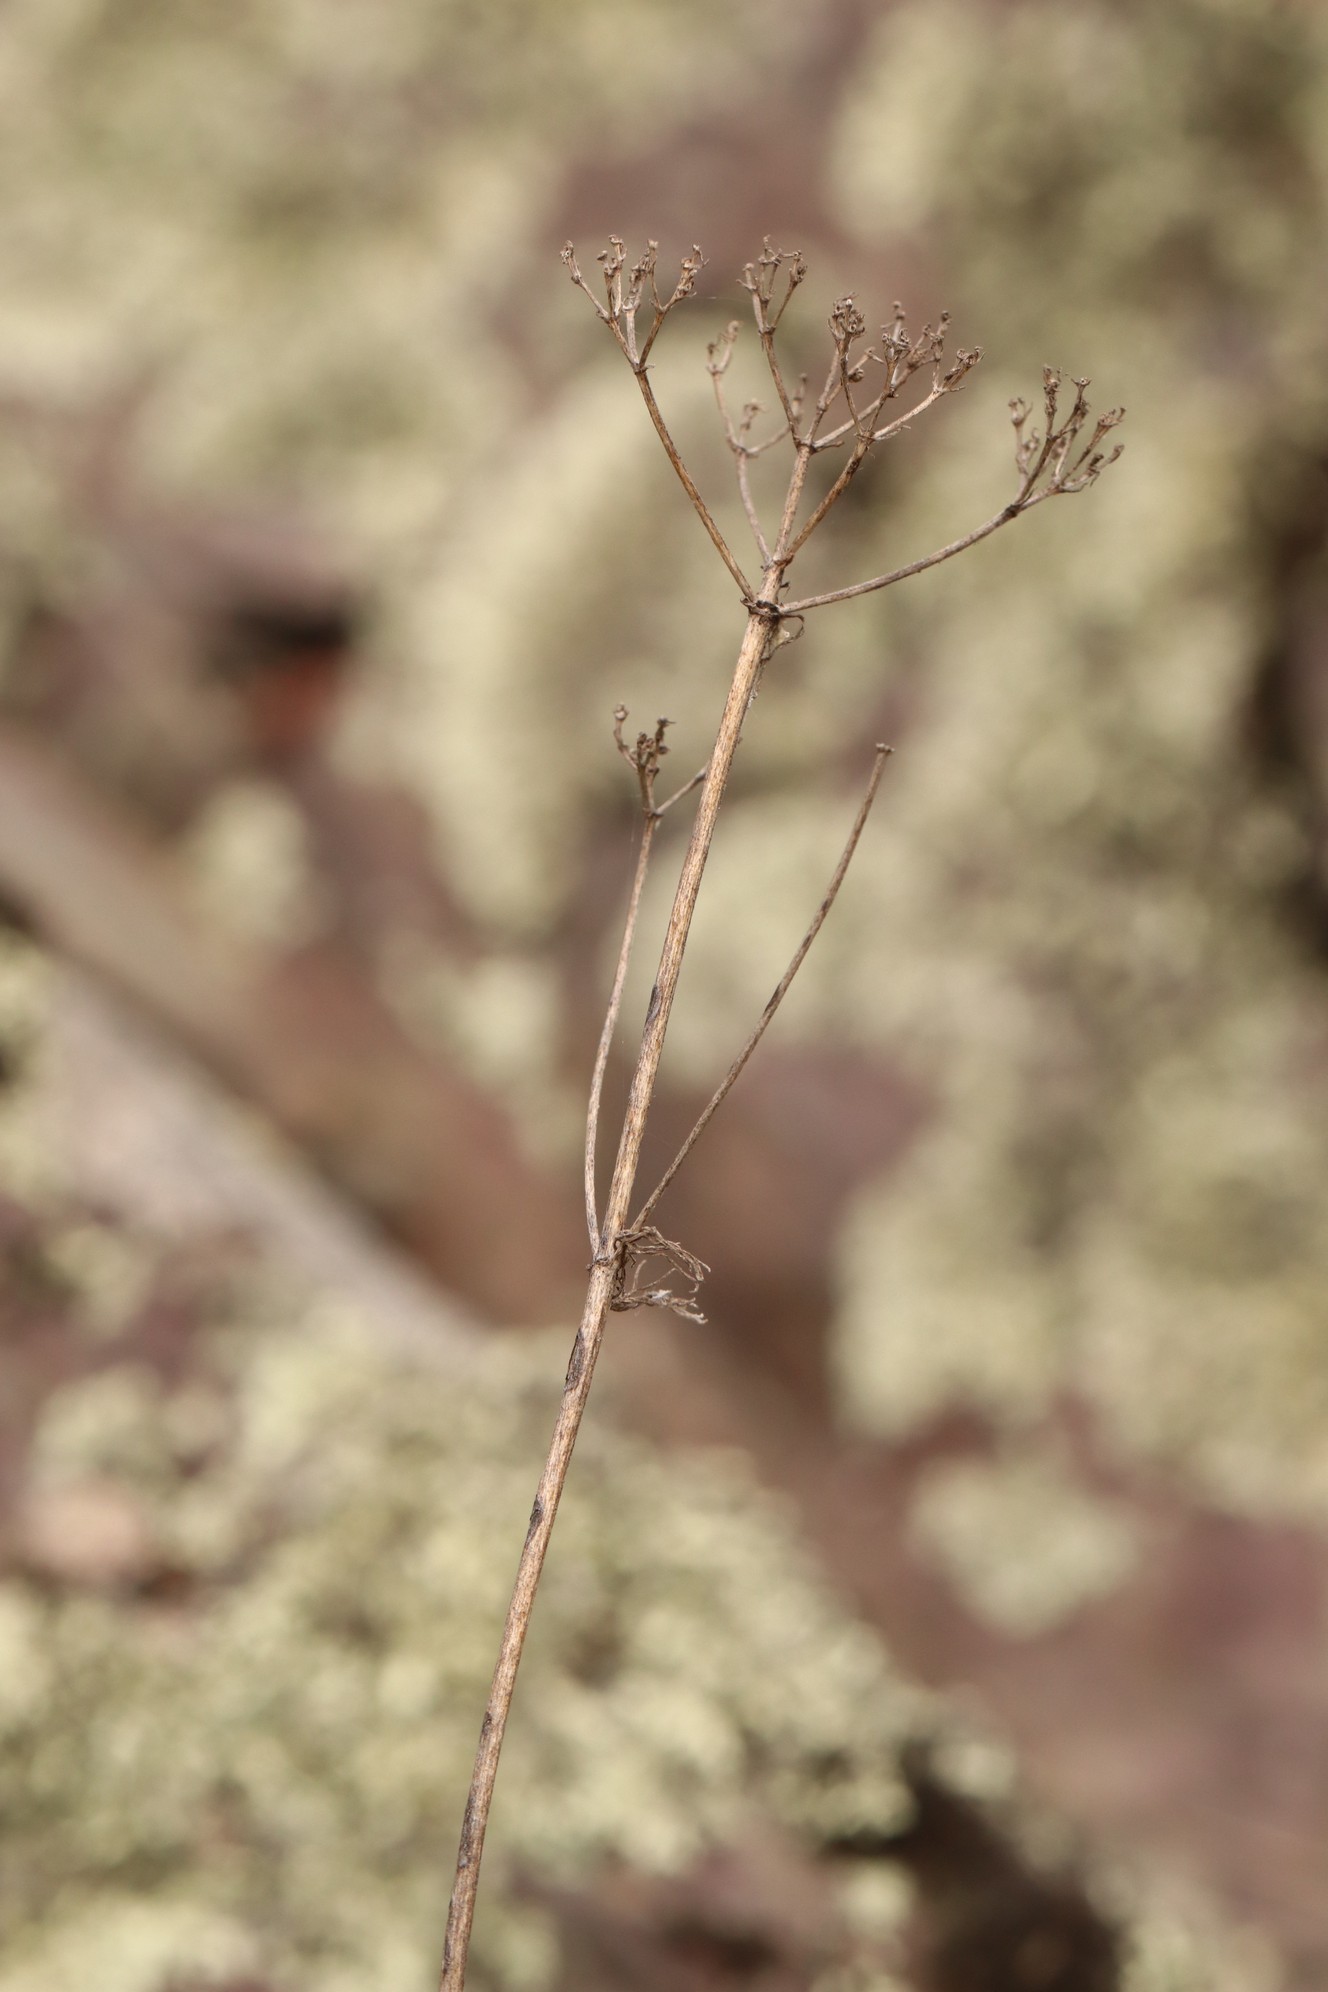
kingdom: Plantae
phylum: Tracheophyta
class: Magnoliopsida
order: Dipsacales
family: Caprifoliaceae
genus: Patrinia
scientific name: Patrinia intermedia
